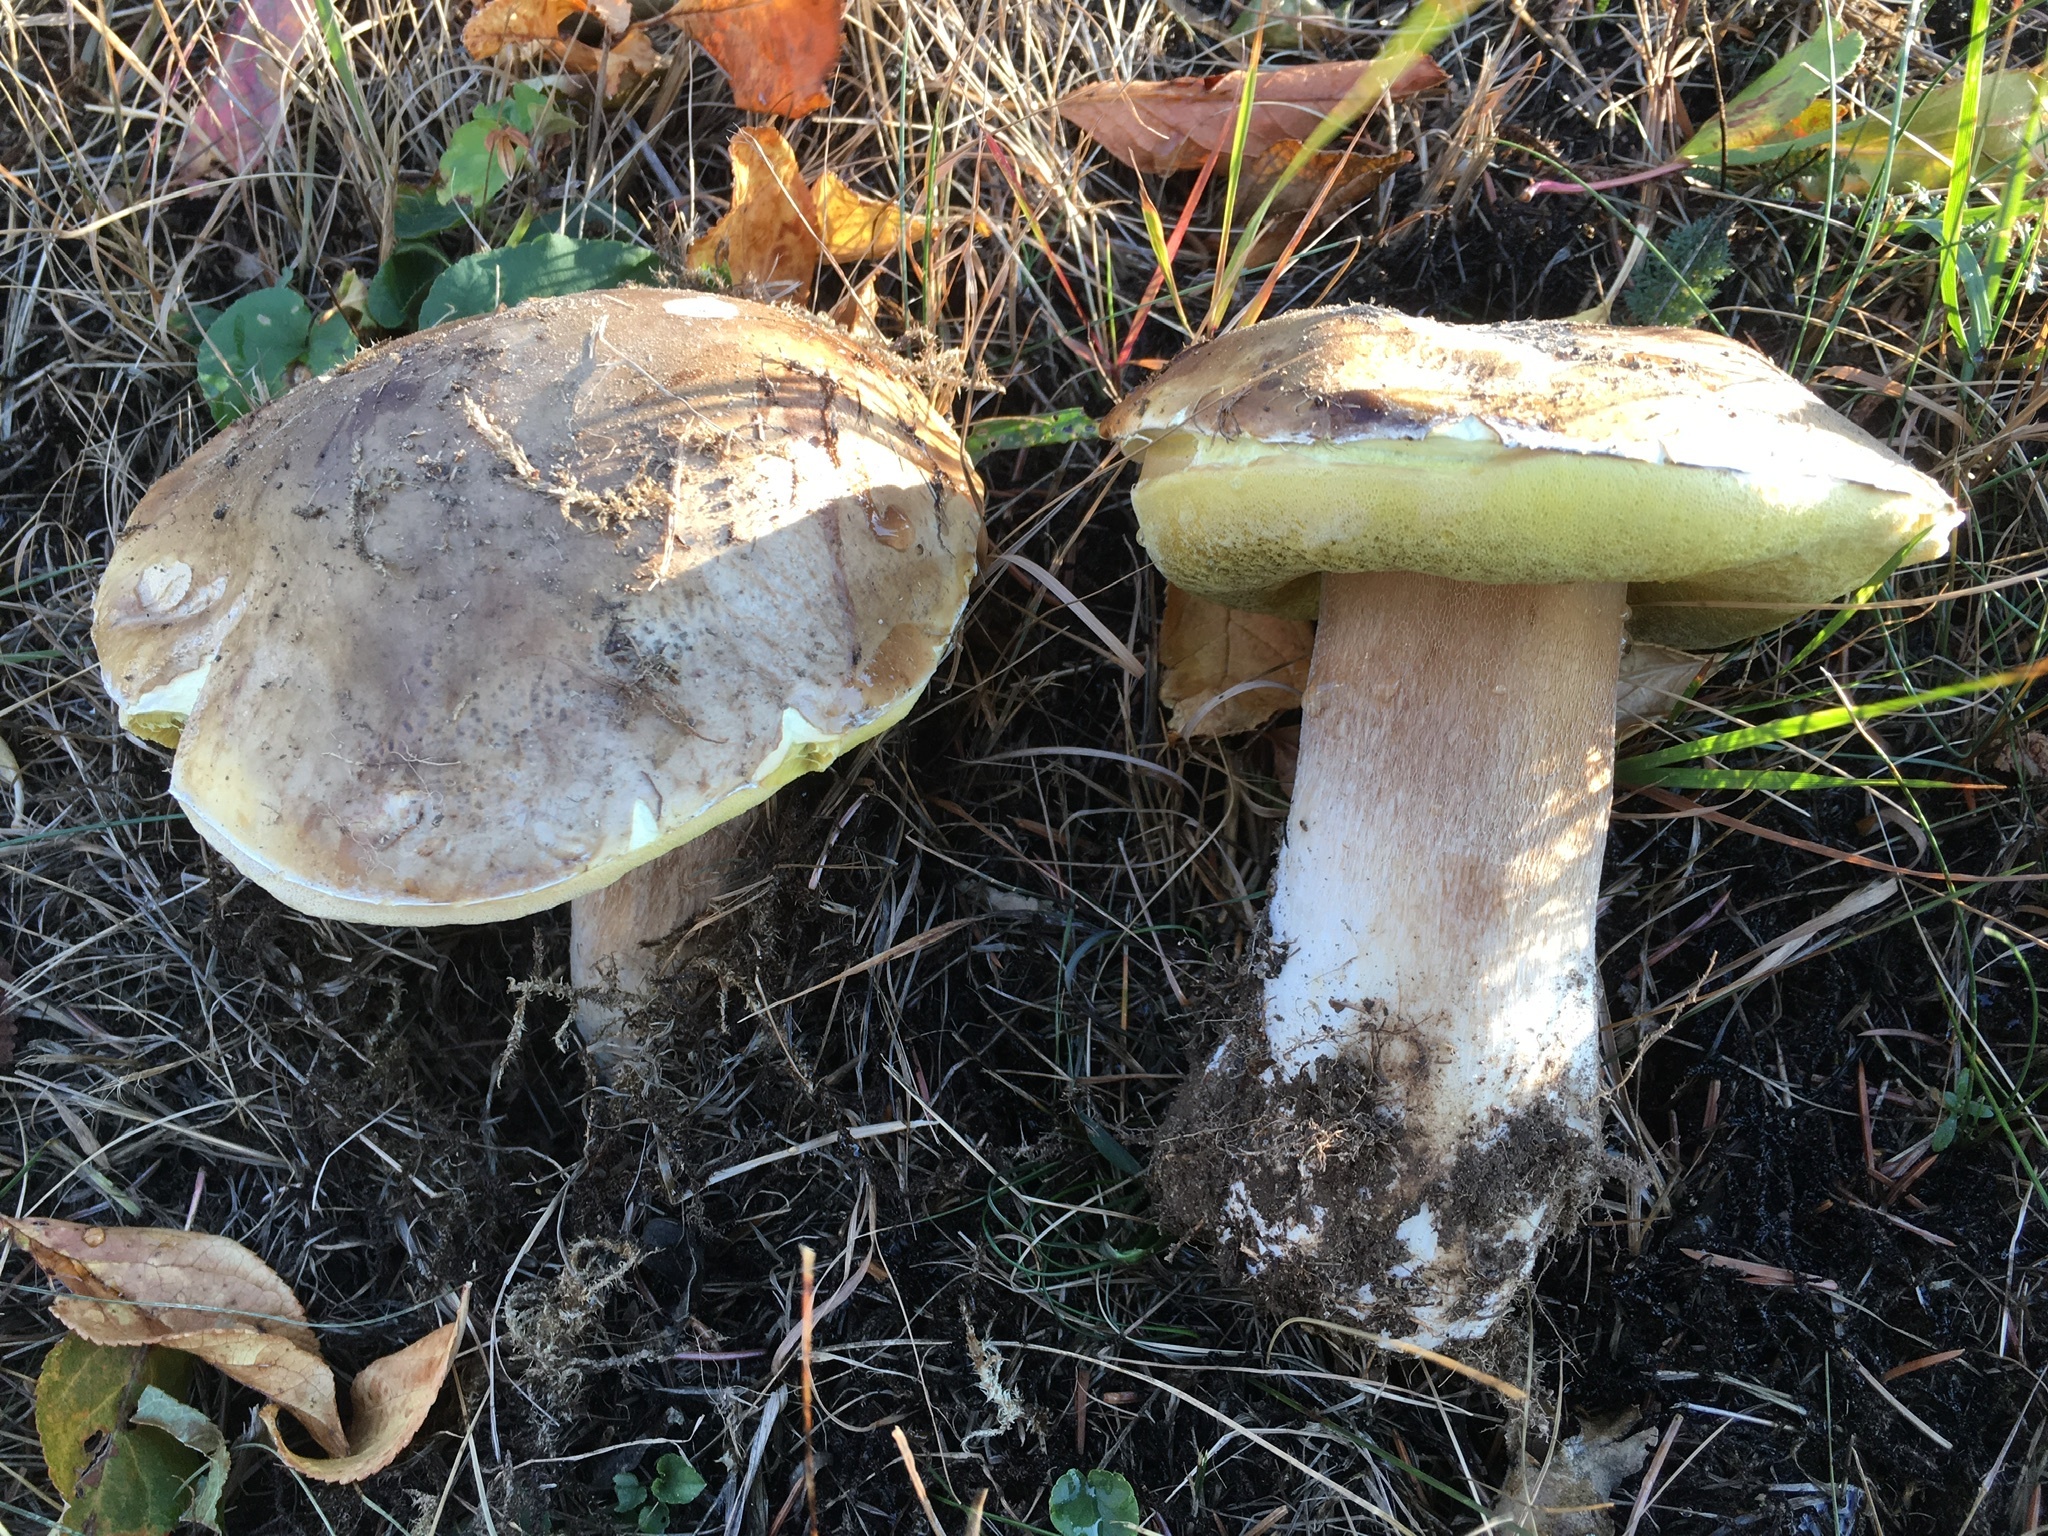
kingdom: Fungi
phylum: Basidiomycota
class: Agaricomycetes
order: Boletales
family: Boletaceae
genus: Boletus
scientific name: Boletus edulis
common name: Cep
